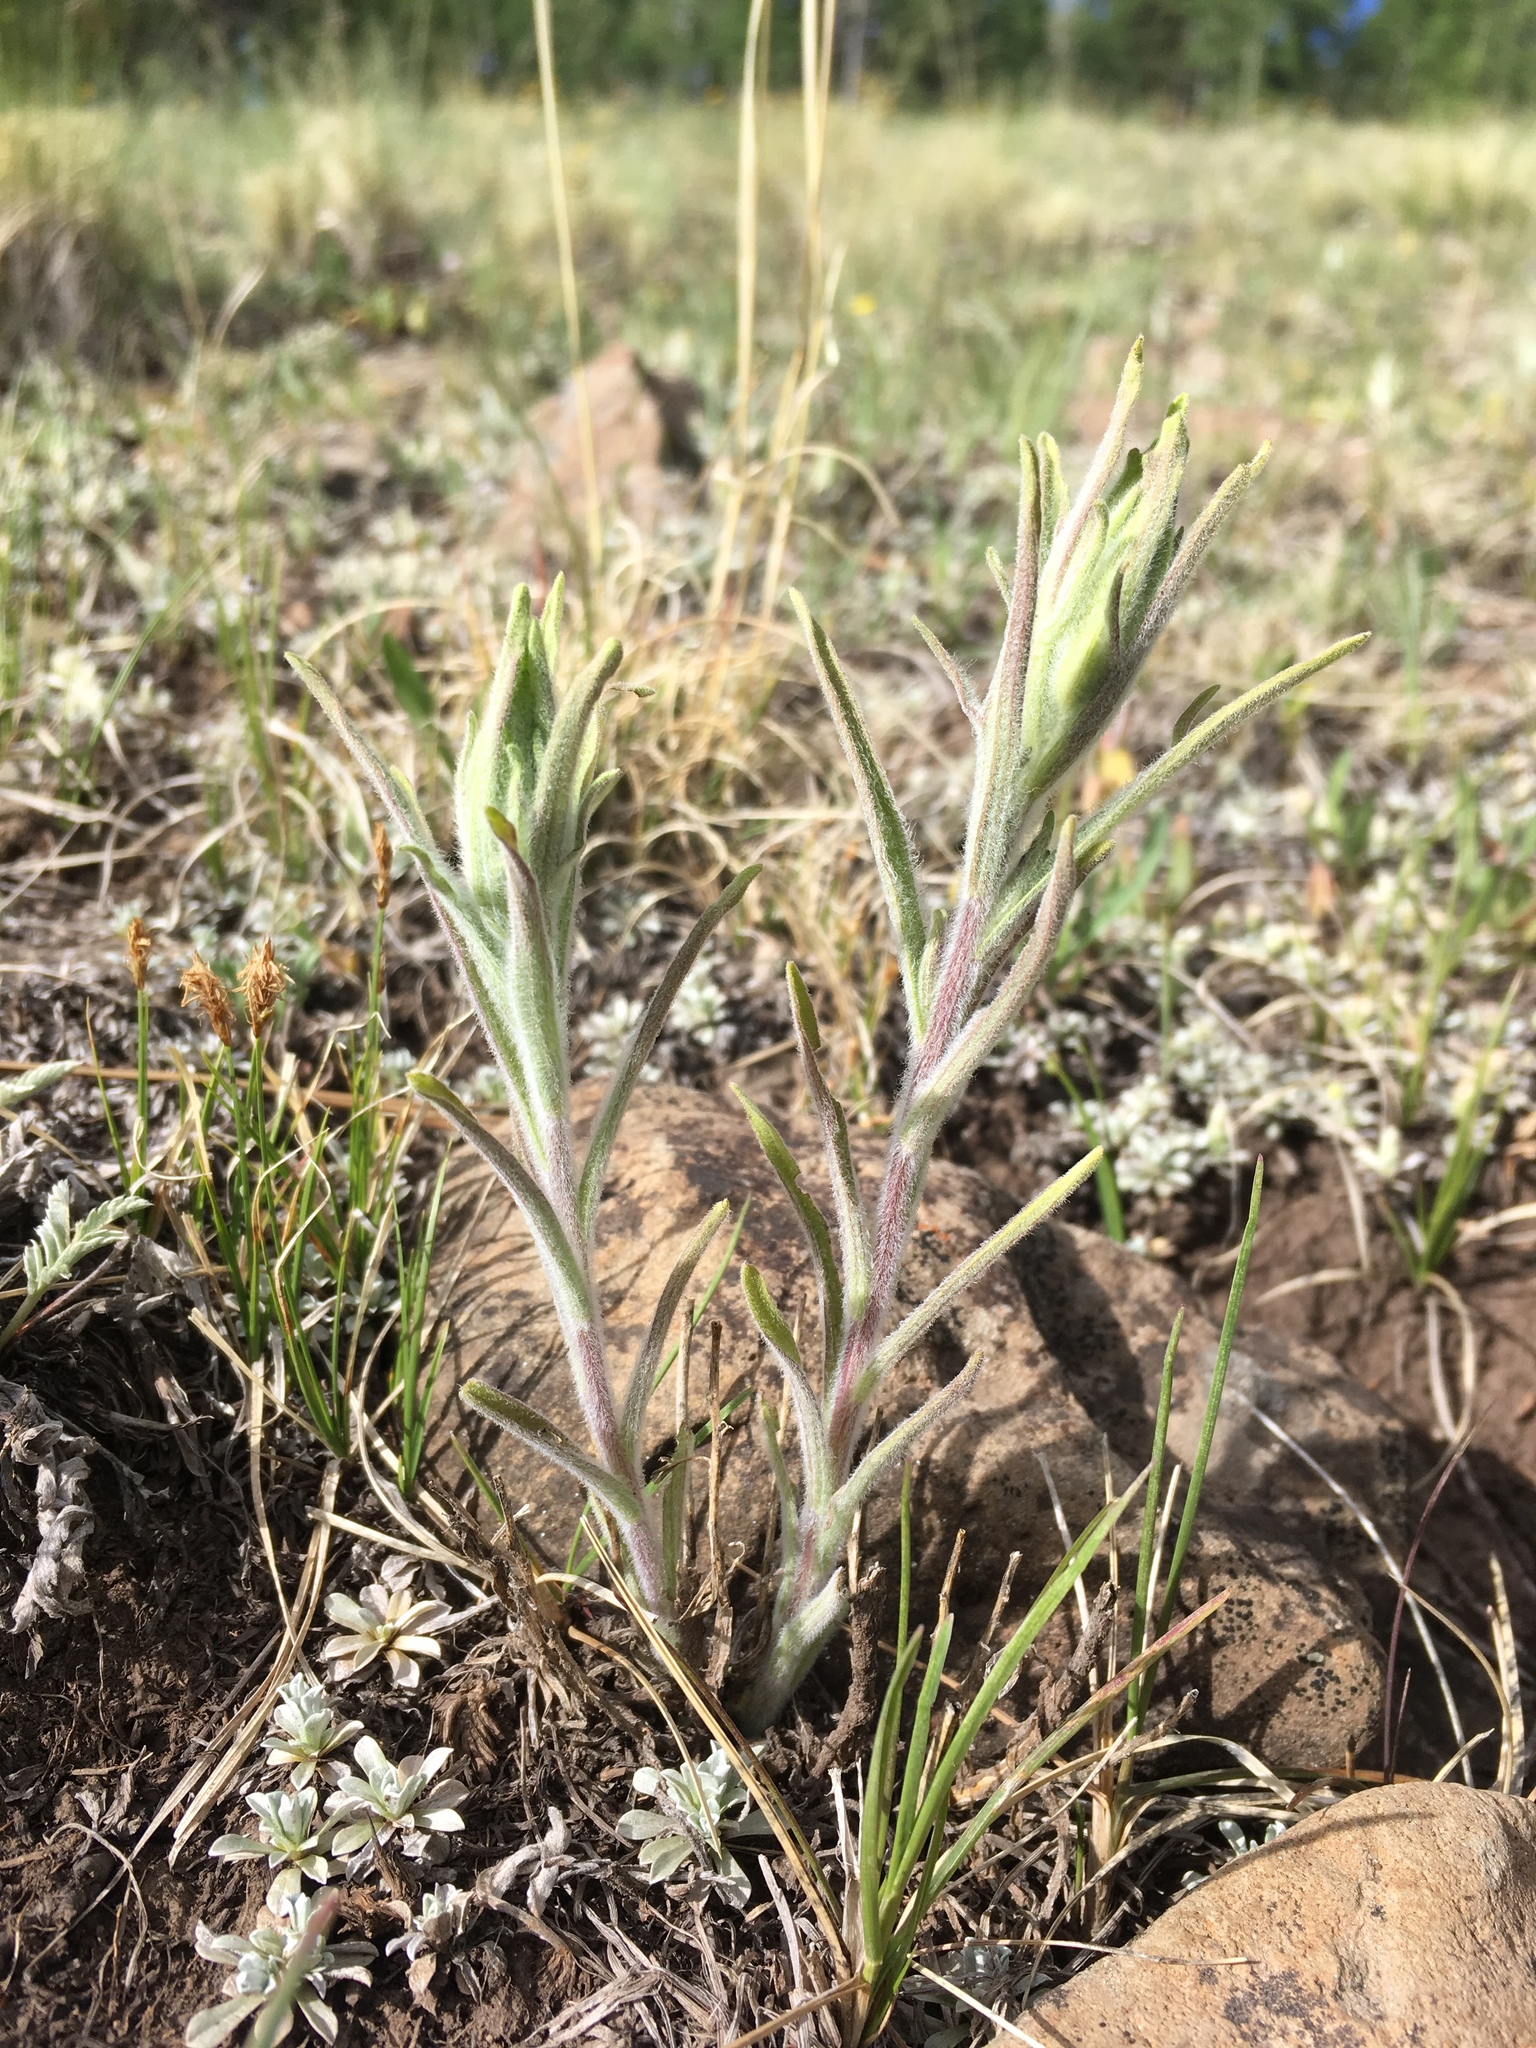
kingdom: Plantae
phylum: Tracheophyta
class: Magnoliopsida
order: Lamiales
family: Orobanchaceae
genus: Castilleja
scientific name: Castilleja lineata
